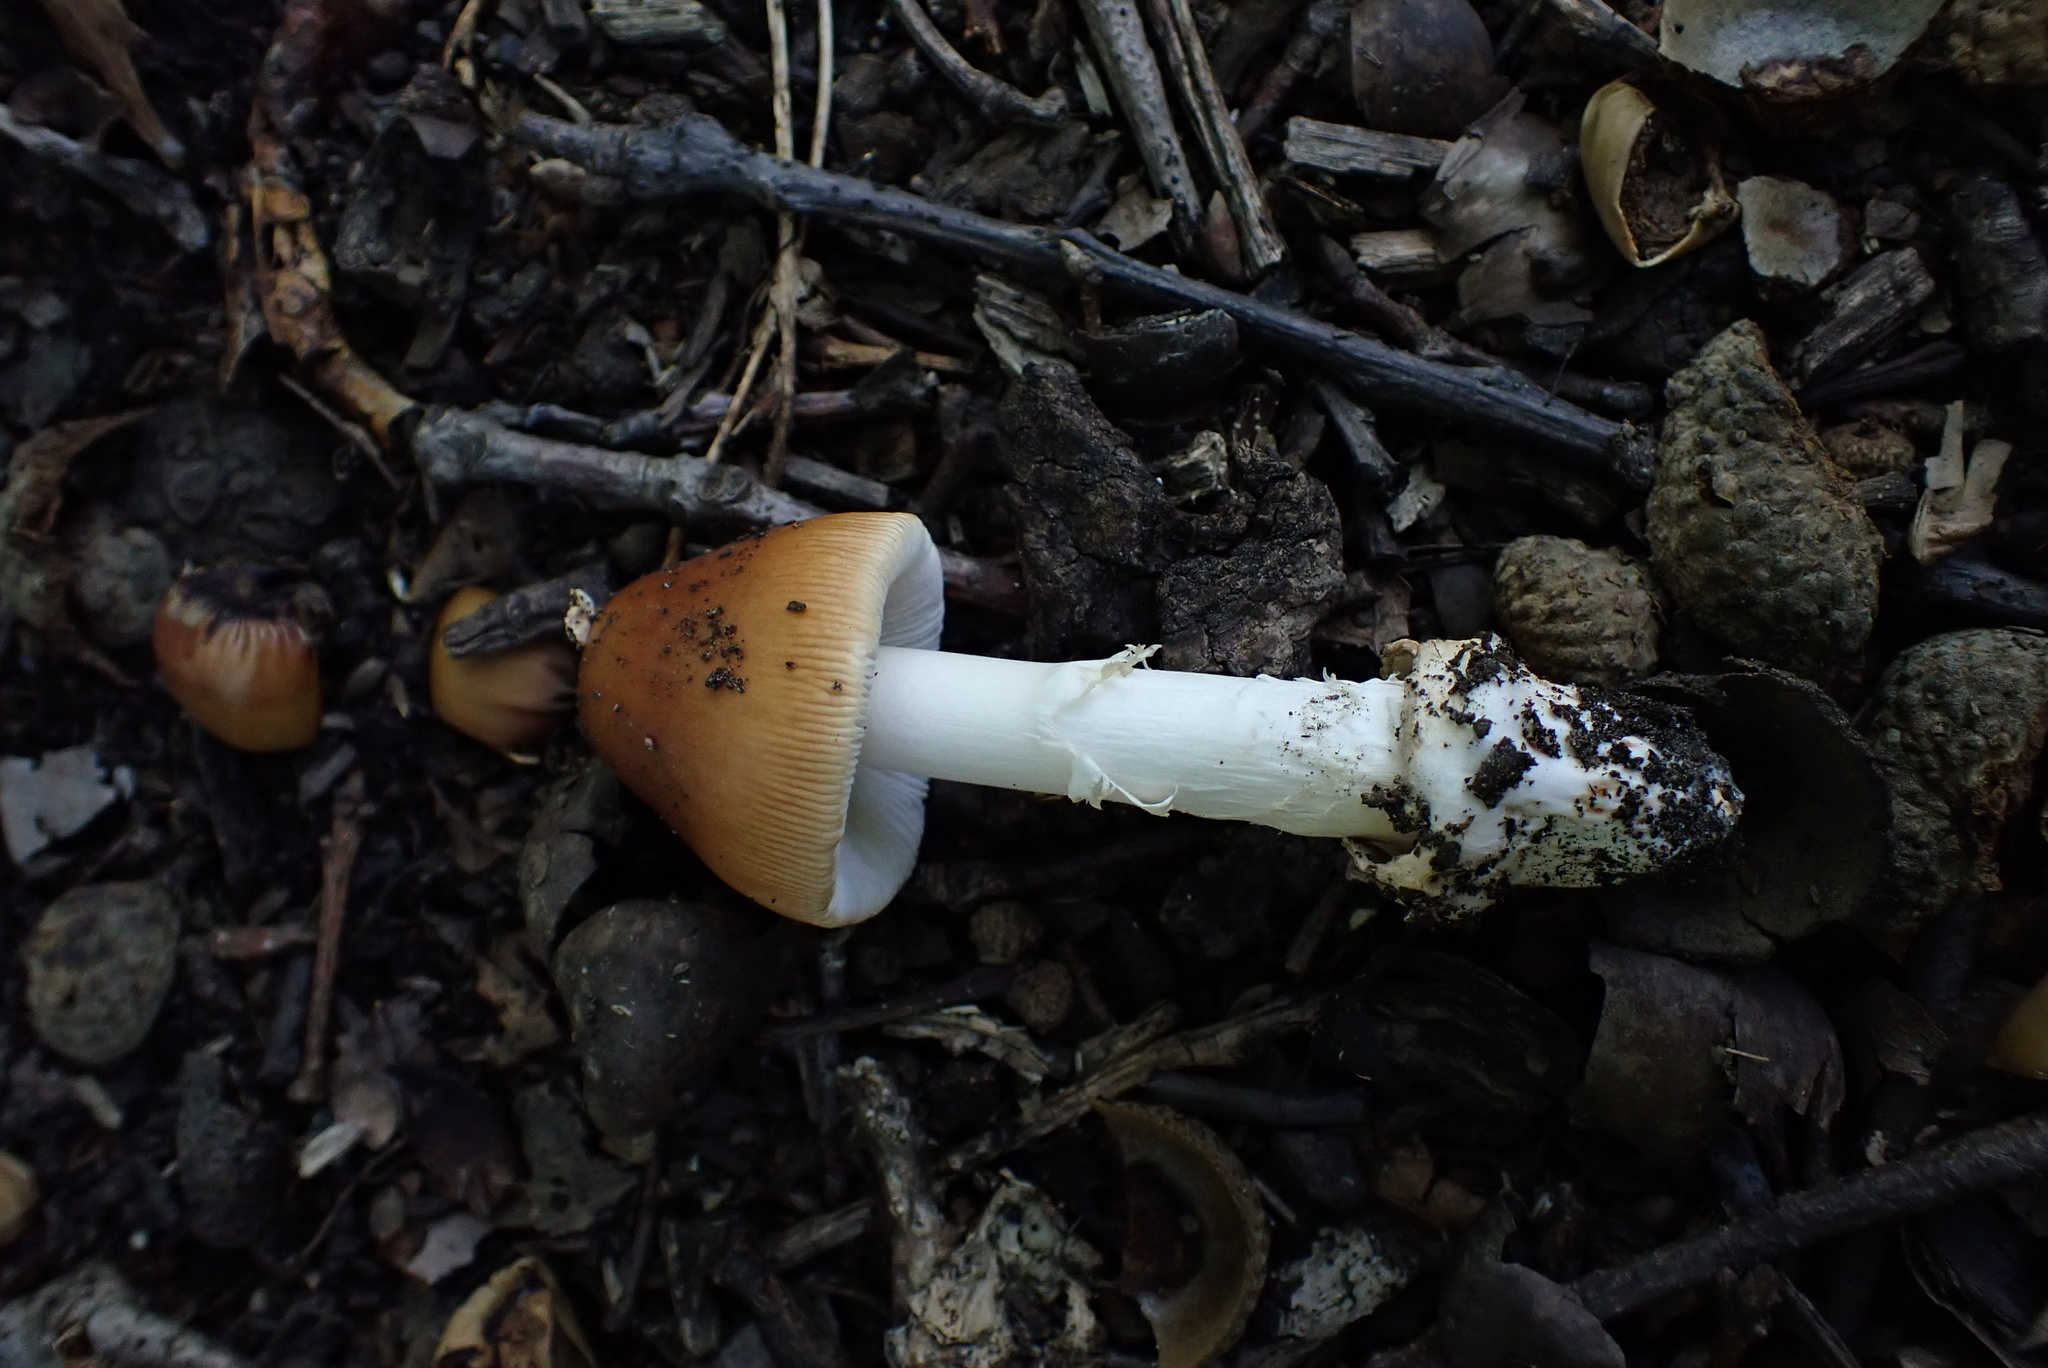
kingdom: Fungi
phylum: Basidiomycota
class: Agaricomycetes
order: Agaricales
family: Amanitaceae
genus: Amanita
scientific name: Amanita fulva
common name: Tawny grisette
